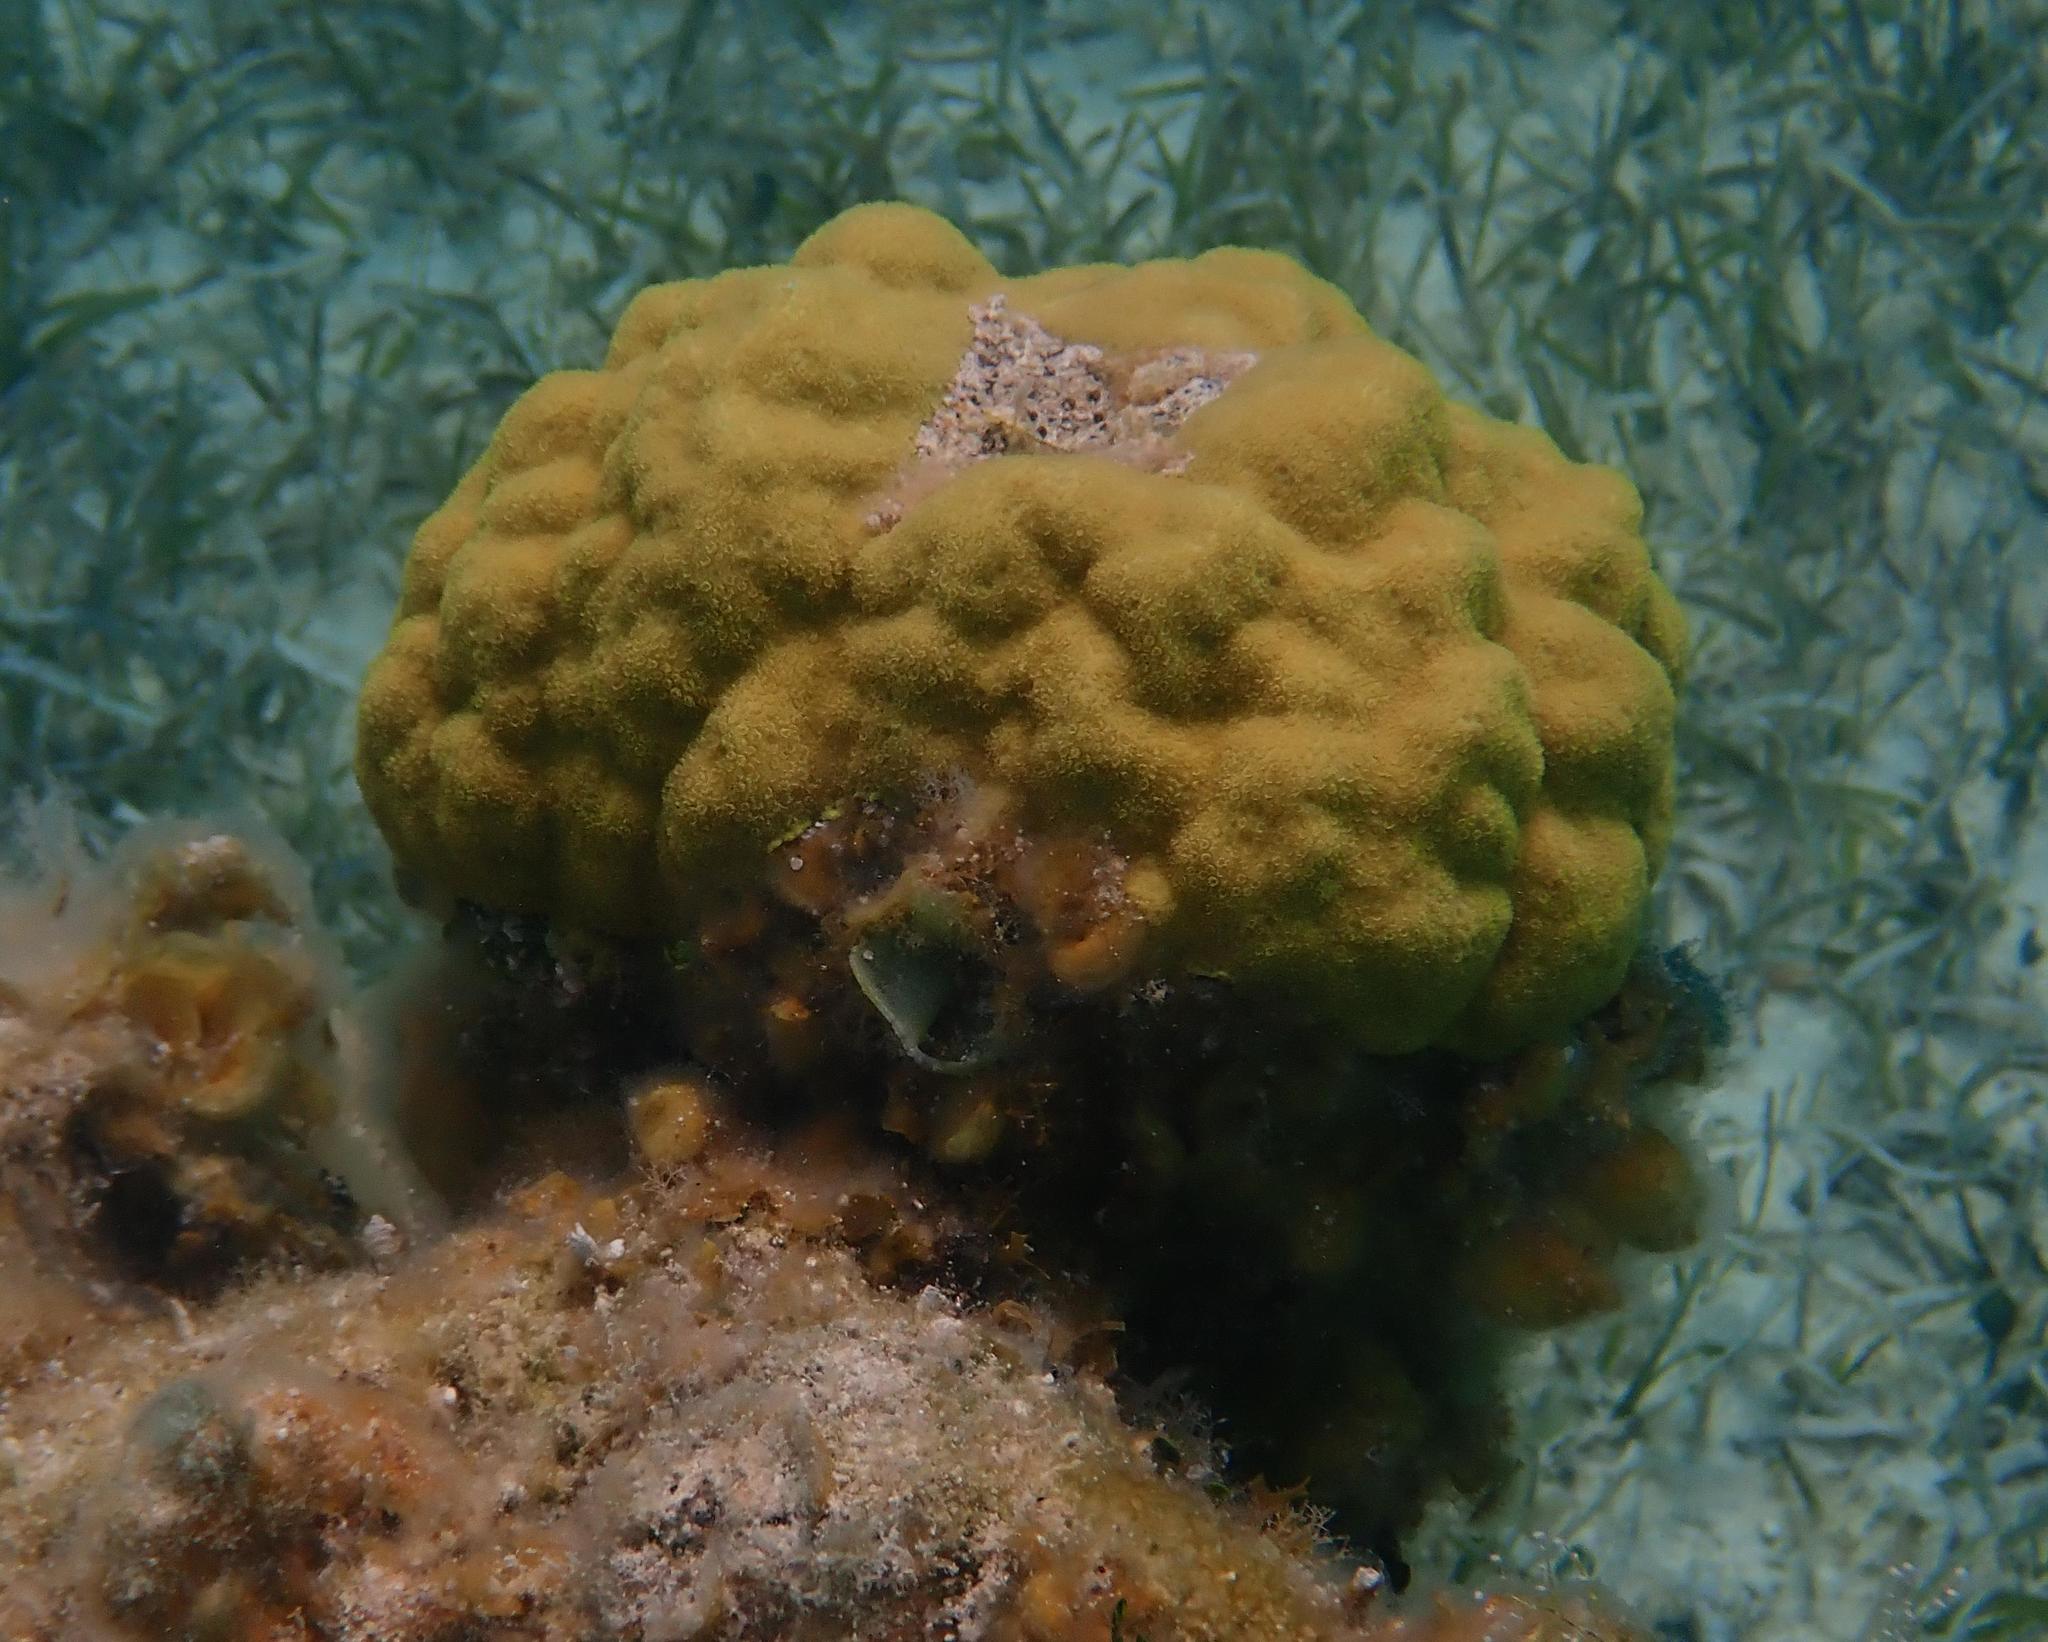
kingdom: Animalia
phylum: Cnidaria
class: Anthozoa
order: Scleractinia
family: Poritidae
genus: Porites
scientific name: Porites astreoides
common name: Mustard hill coral
